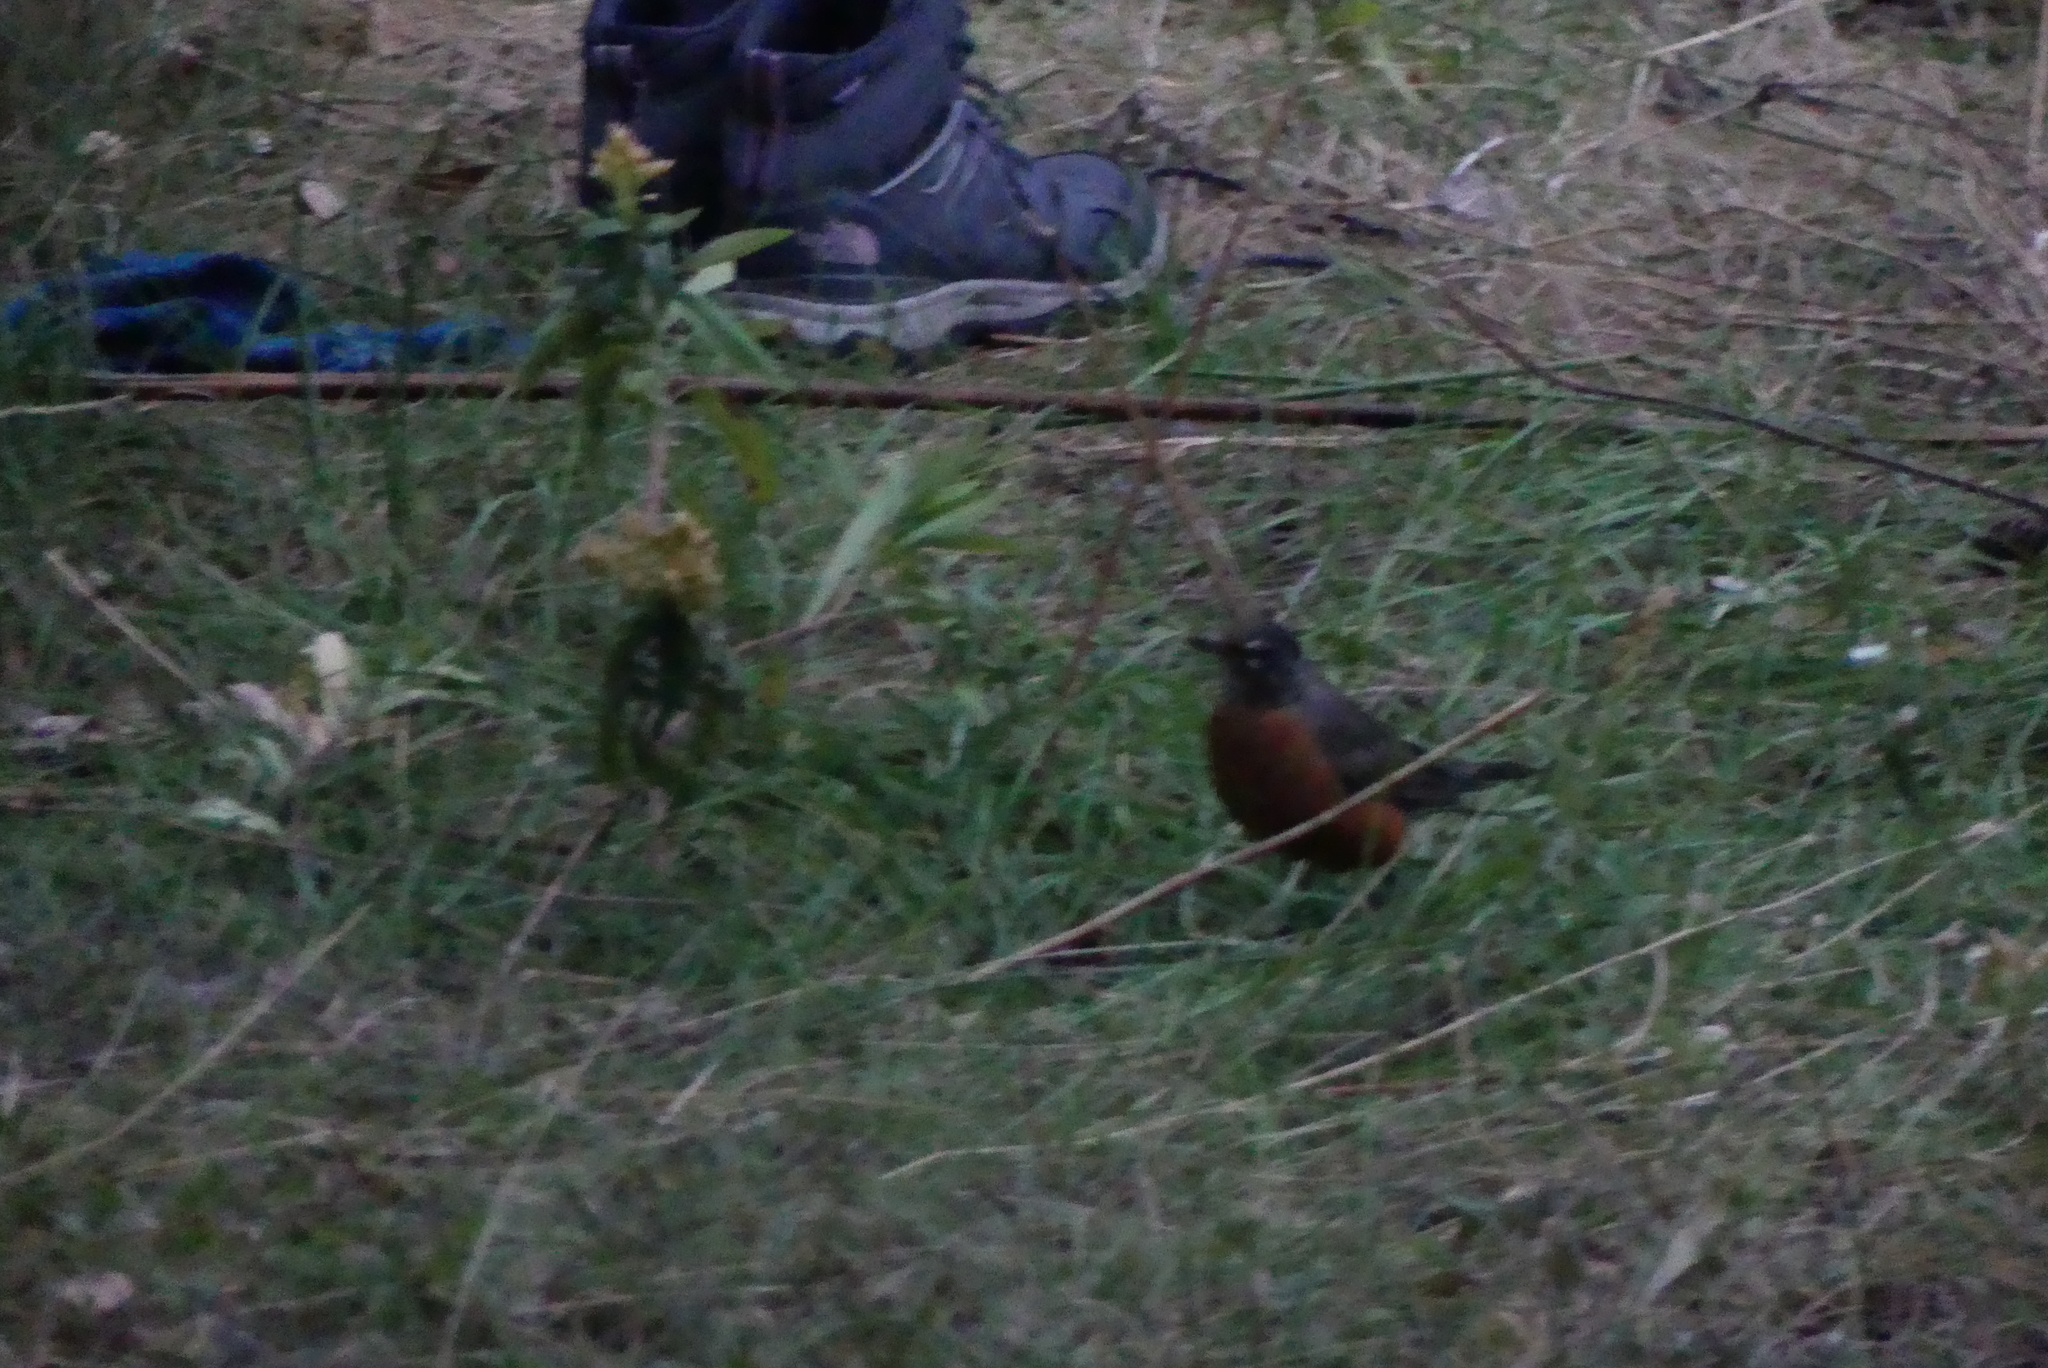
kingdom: Animalia
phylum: Chordata
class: Aves
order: Passeriformes
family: Turdidae
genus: Turdus
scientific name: Turdus migratorius
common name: American robin
